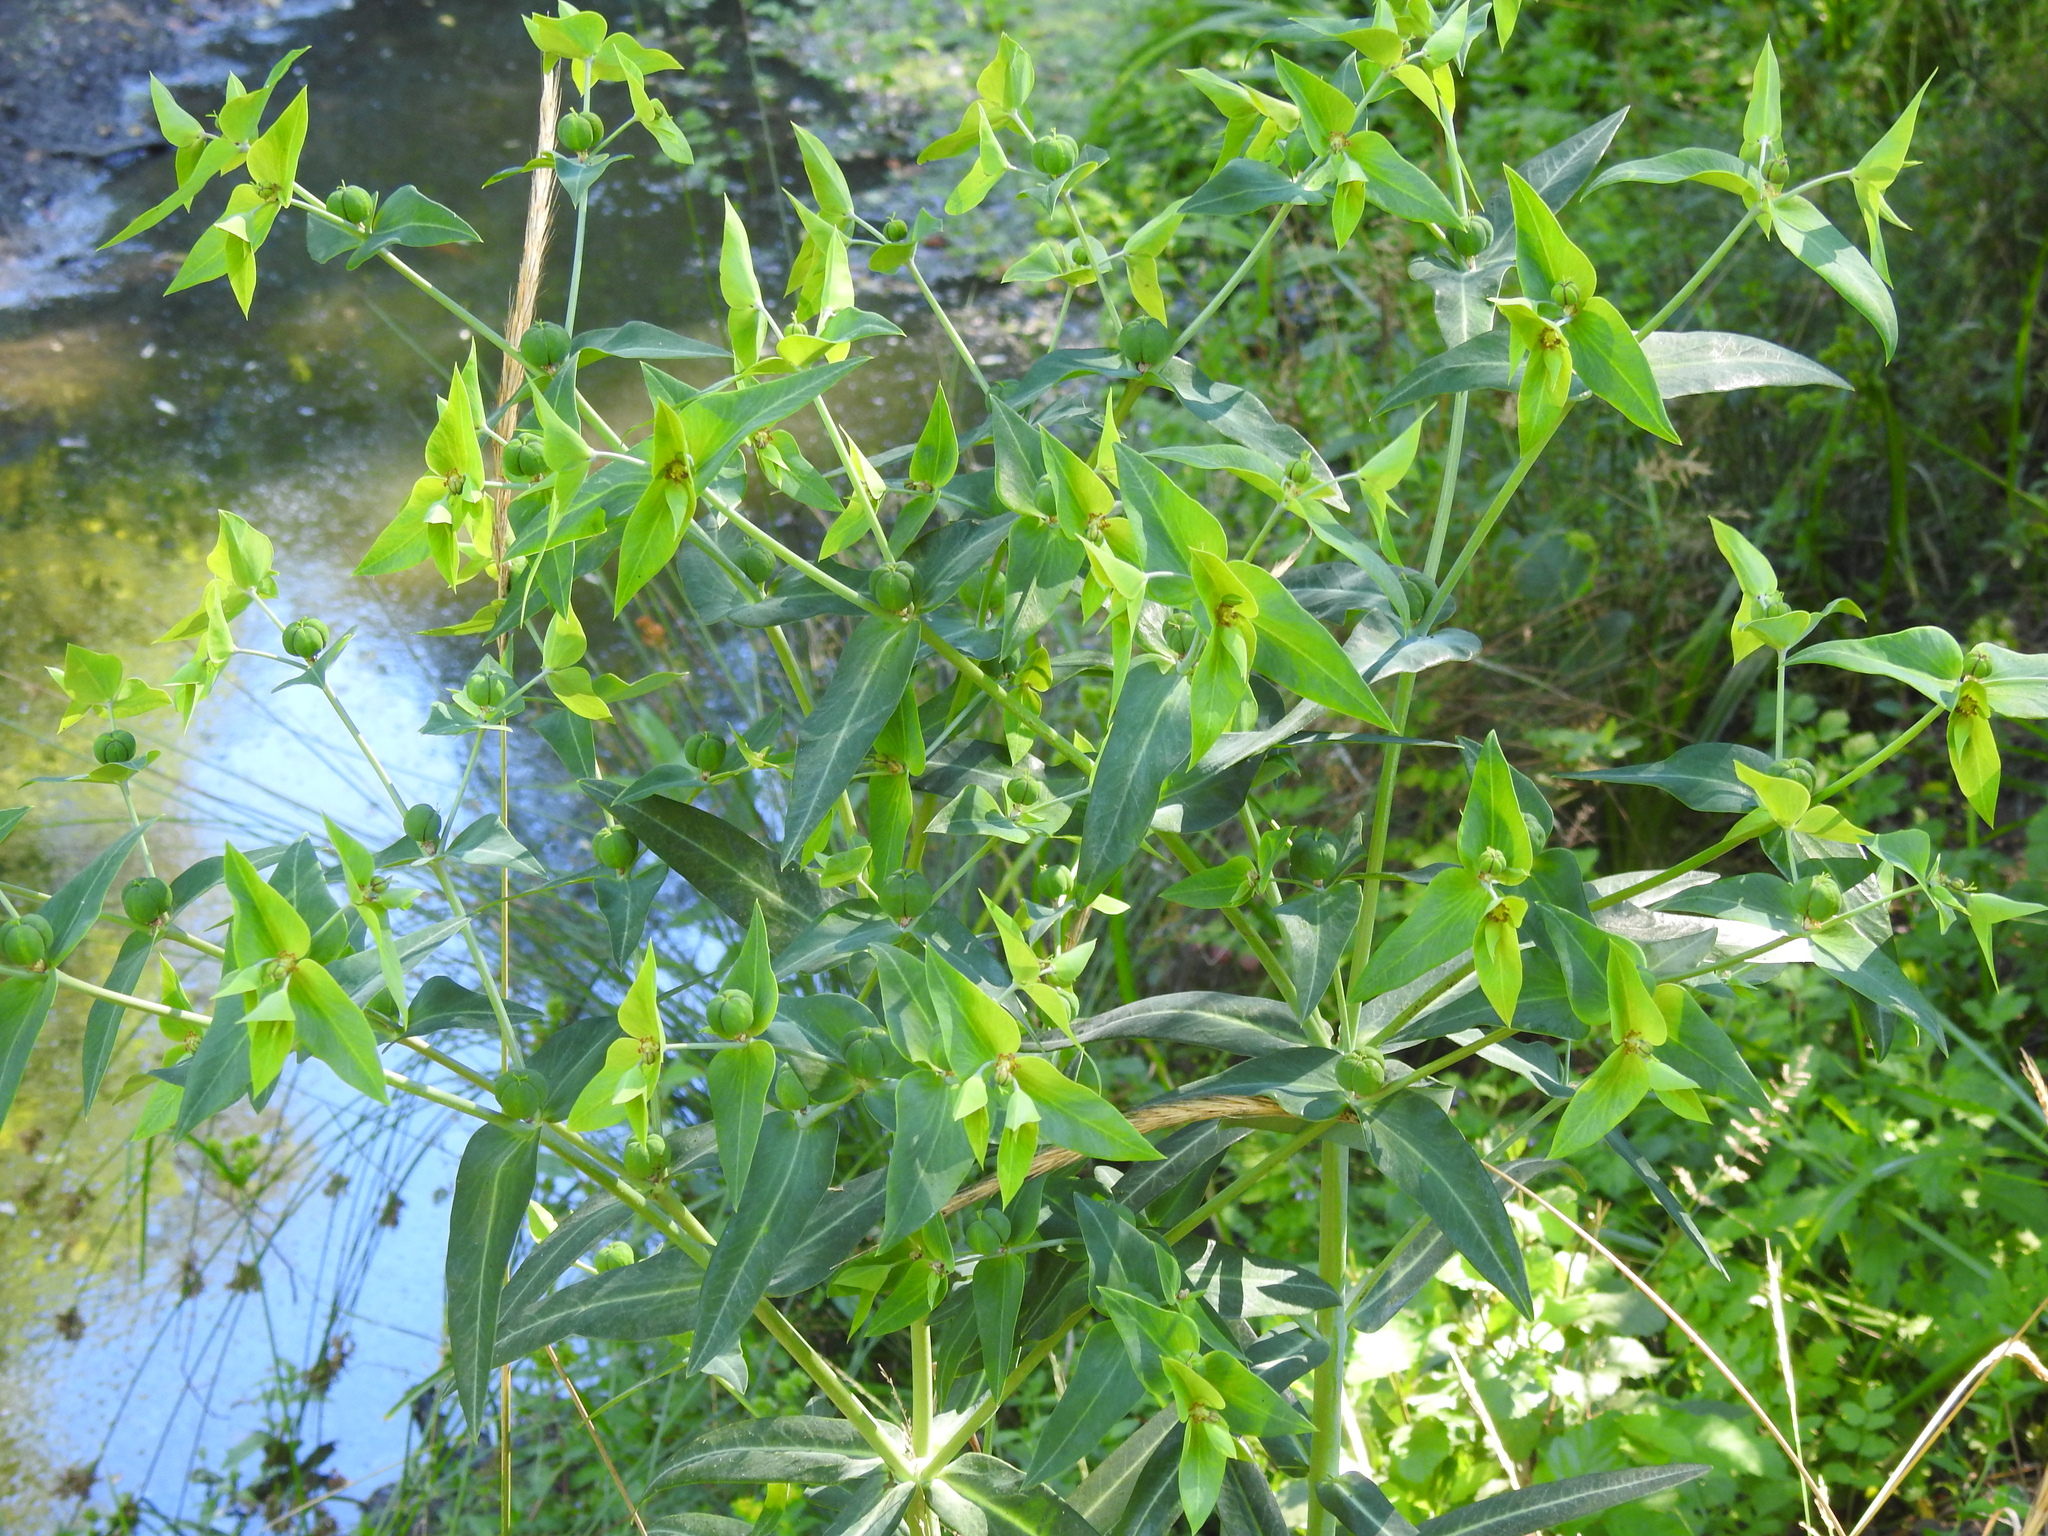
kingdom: Plantae
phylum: Tracheophyta
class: Magnoliopsida
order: Malpighiales
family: Euphorbiaceae
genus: Euphorbia
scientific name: Euphorbia lathyris
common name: Caper spurge
